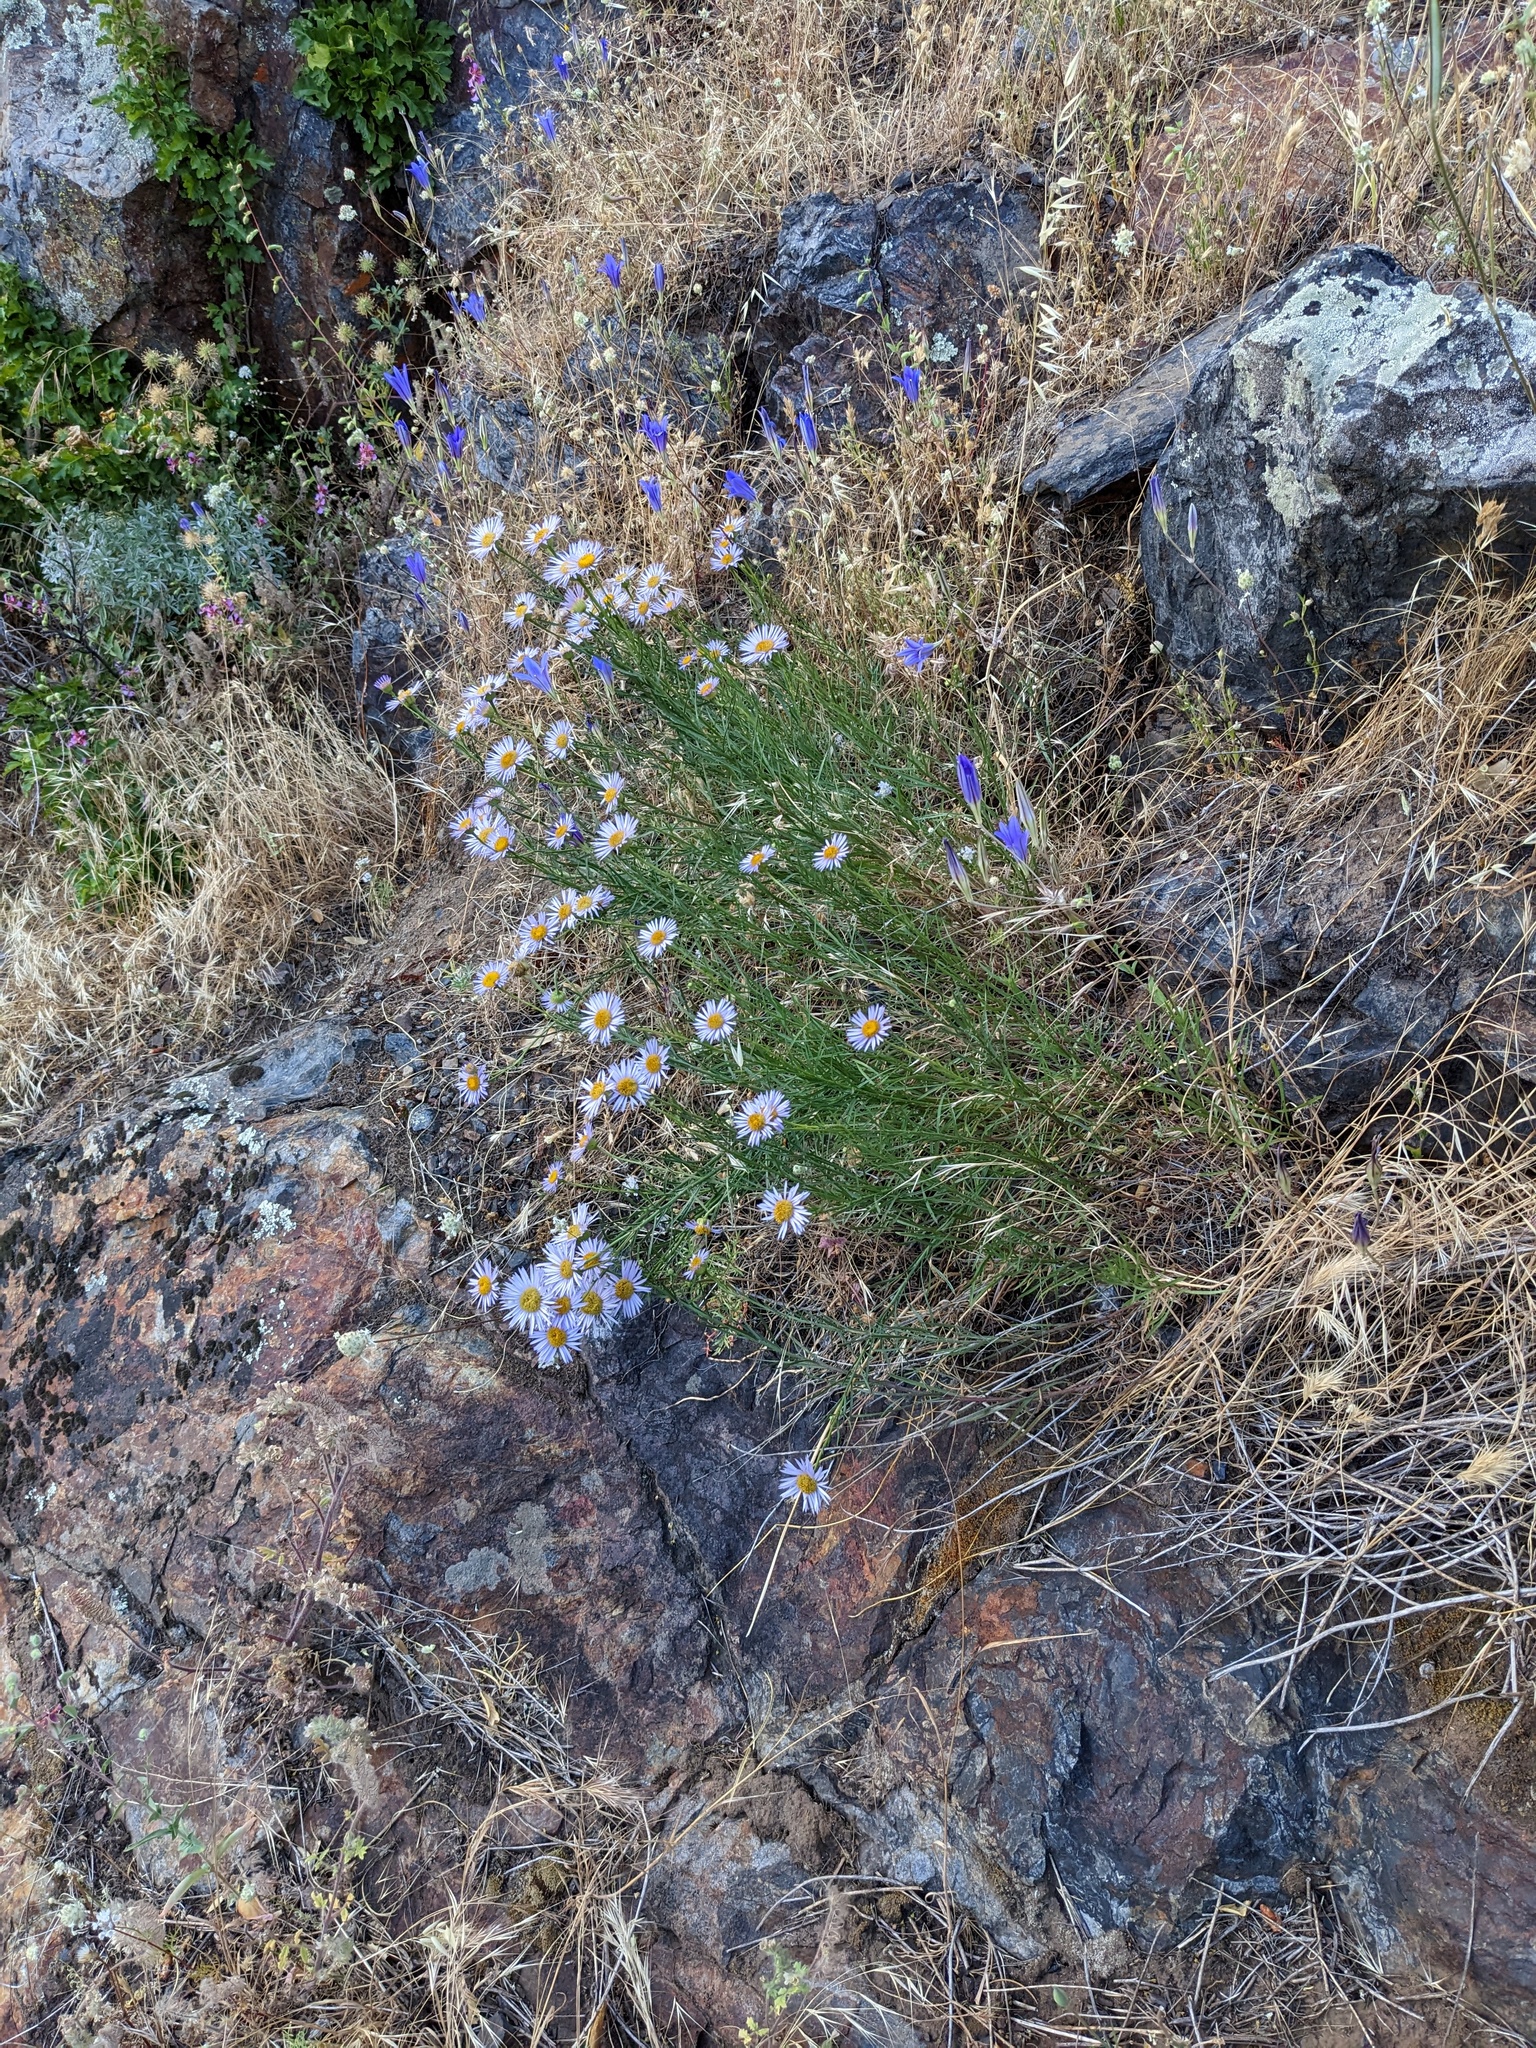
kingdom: Plantae
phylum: Tracheophyta
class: Magnoliopsida
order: Asterales
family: Asteraceae
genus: Erigeron
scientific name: Erigeron foliosus
